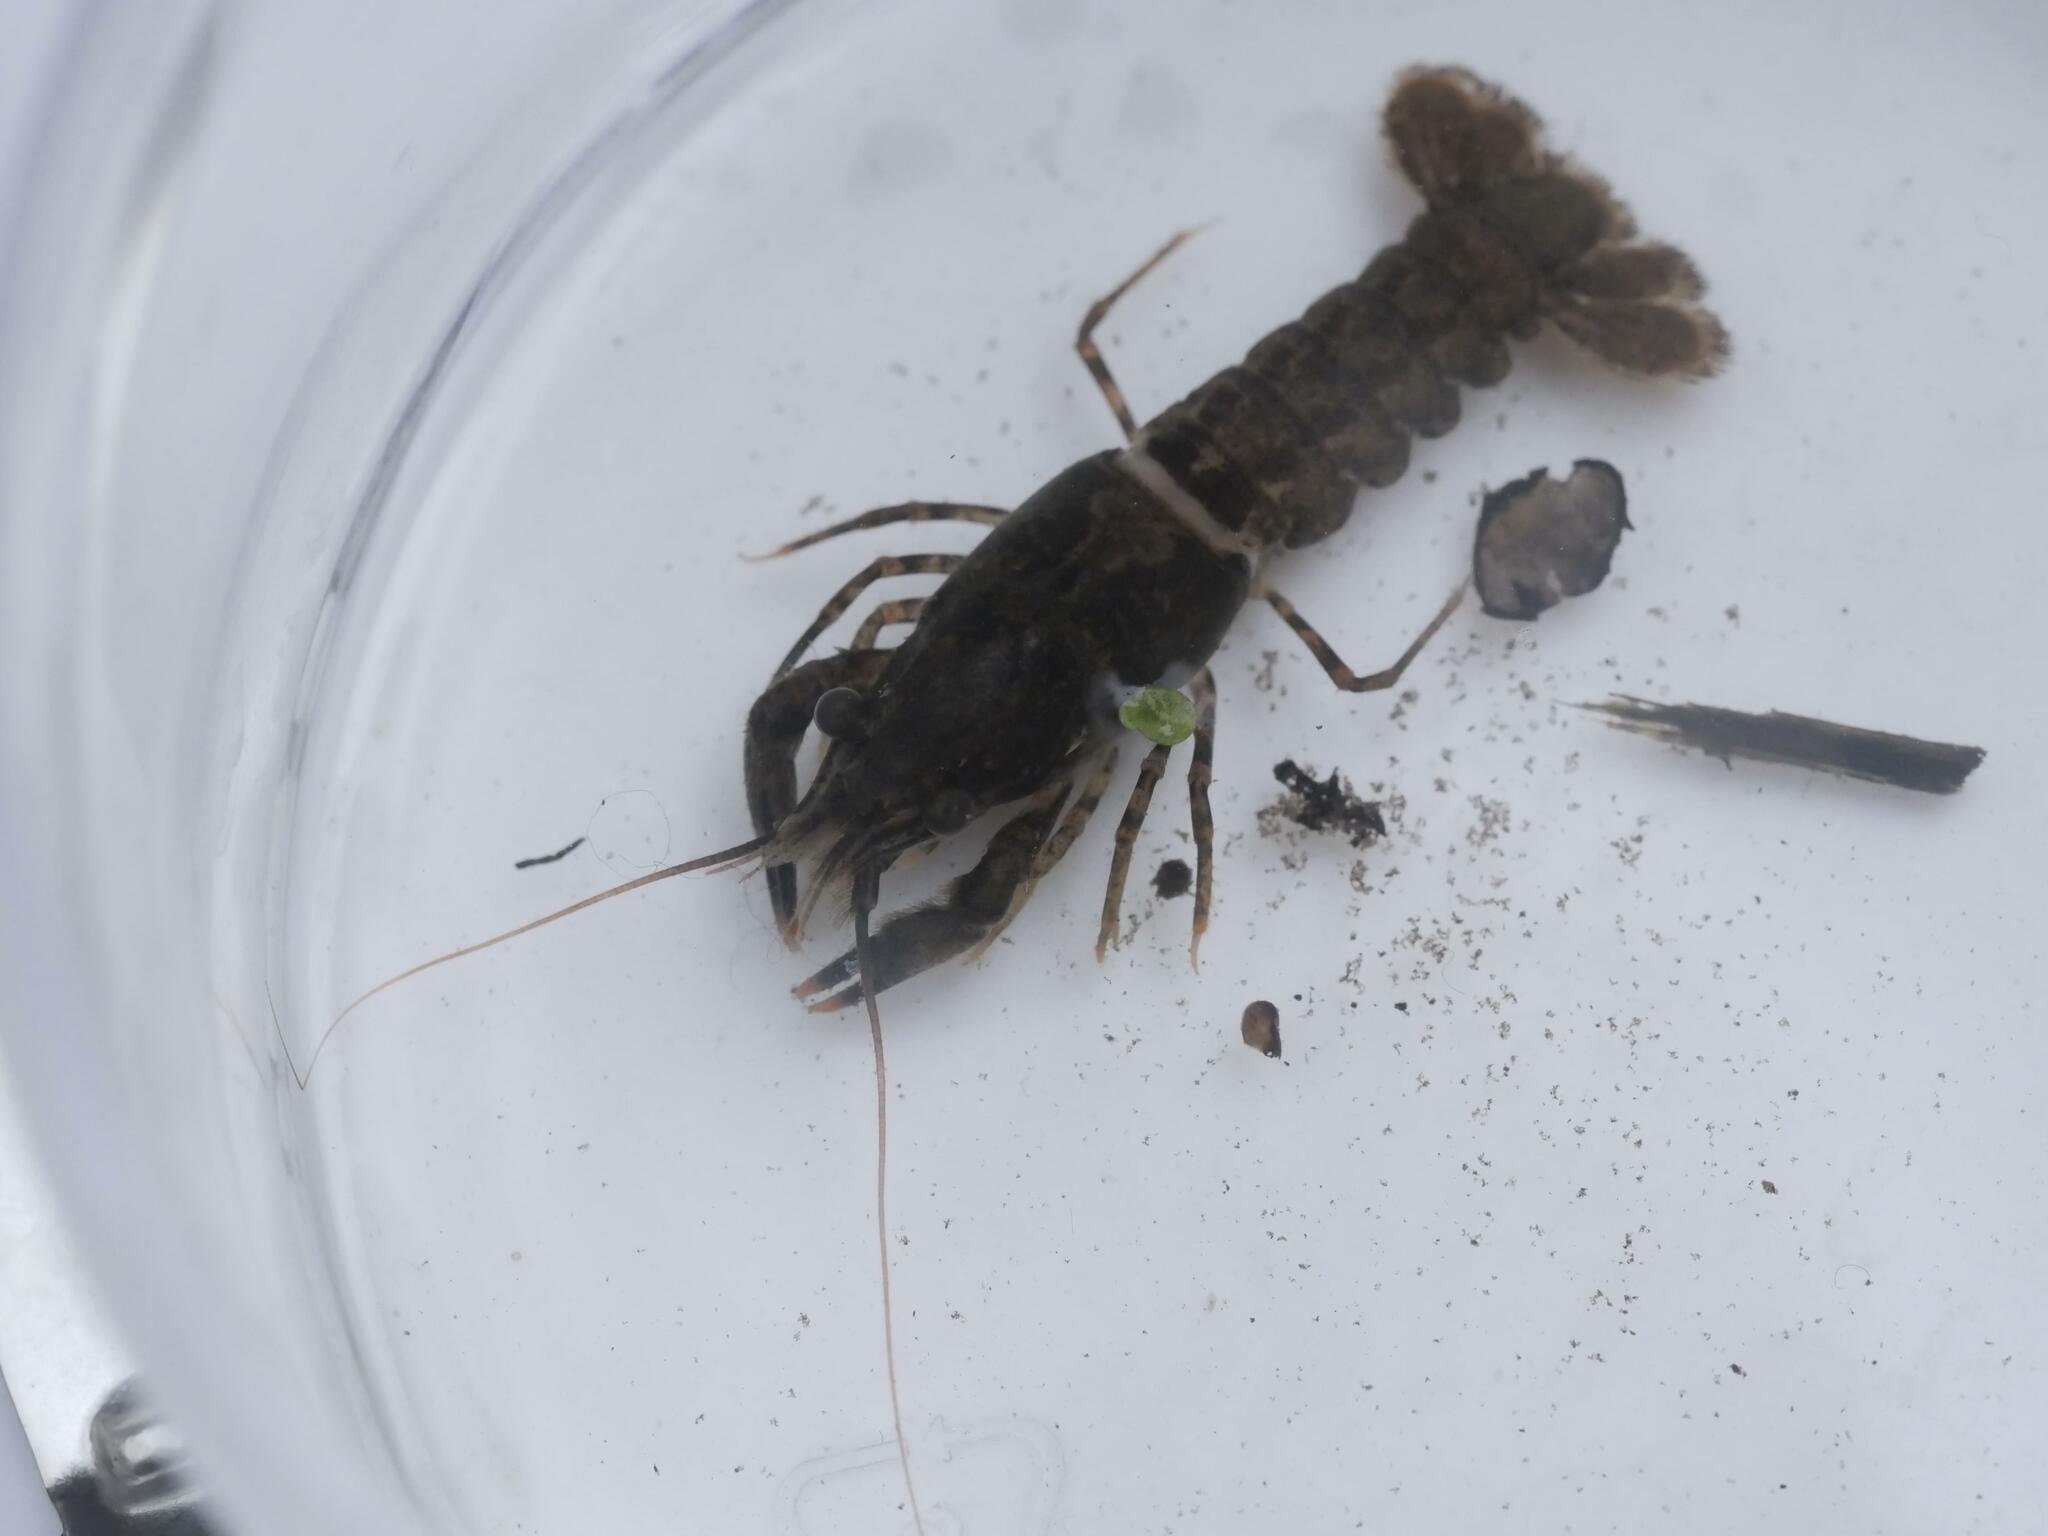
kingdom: Animalia
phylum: Arthropoda
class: Malacostraca
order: Decapoda
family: Cambaridae
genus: Faxonius
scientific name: Faxonius limosus
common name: American crayfish
